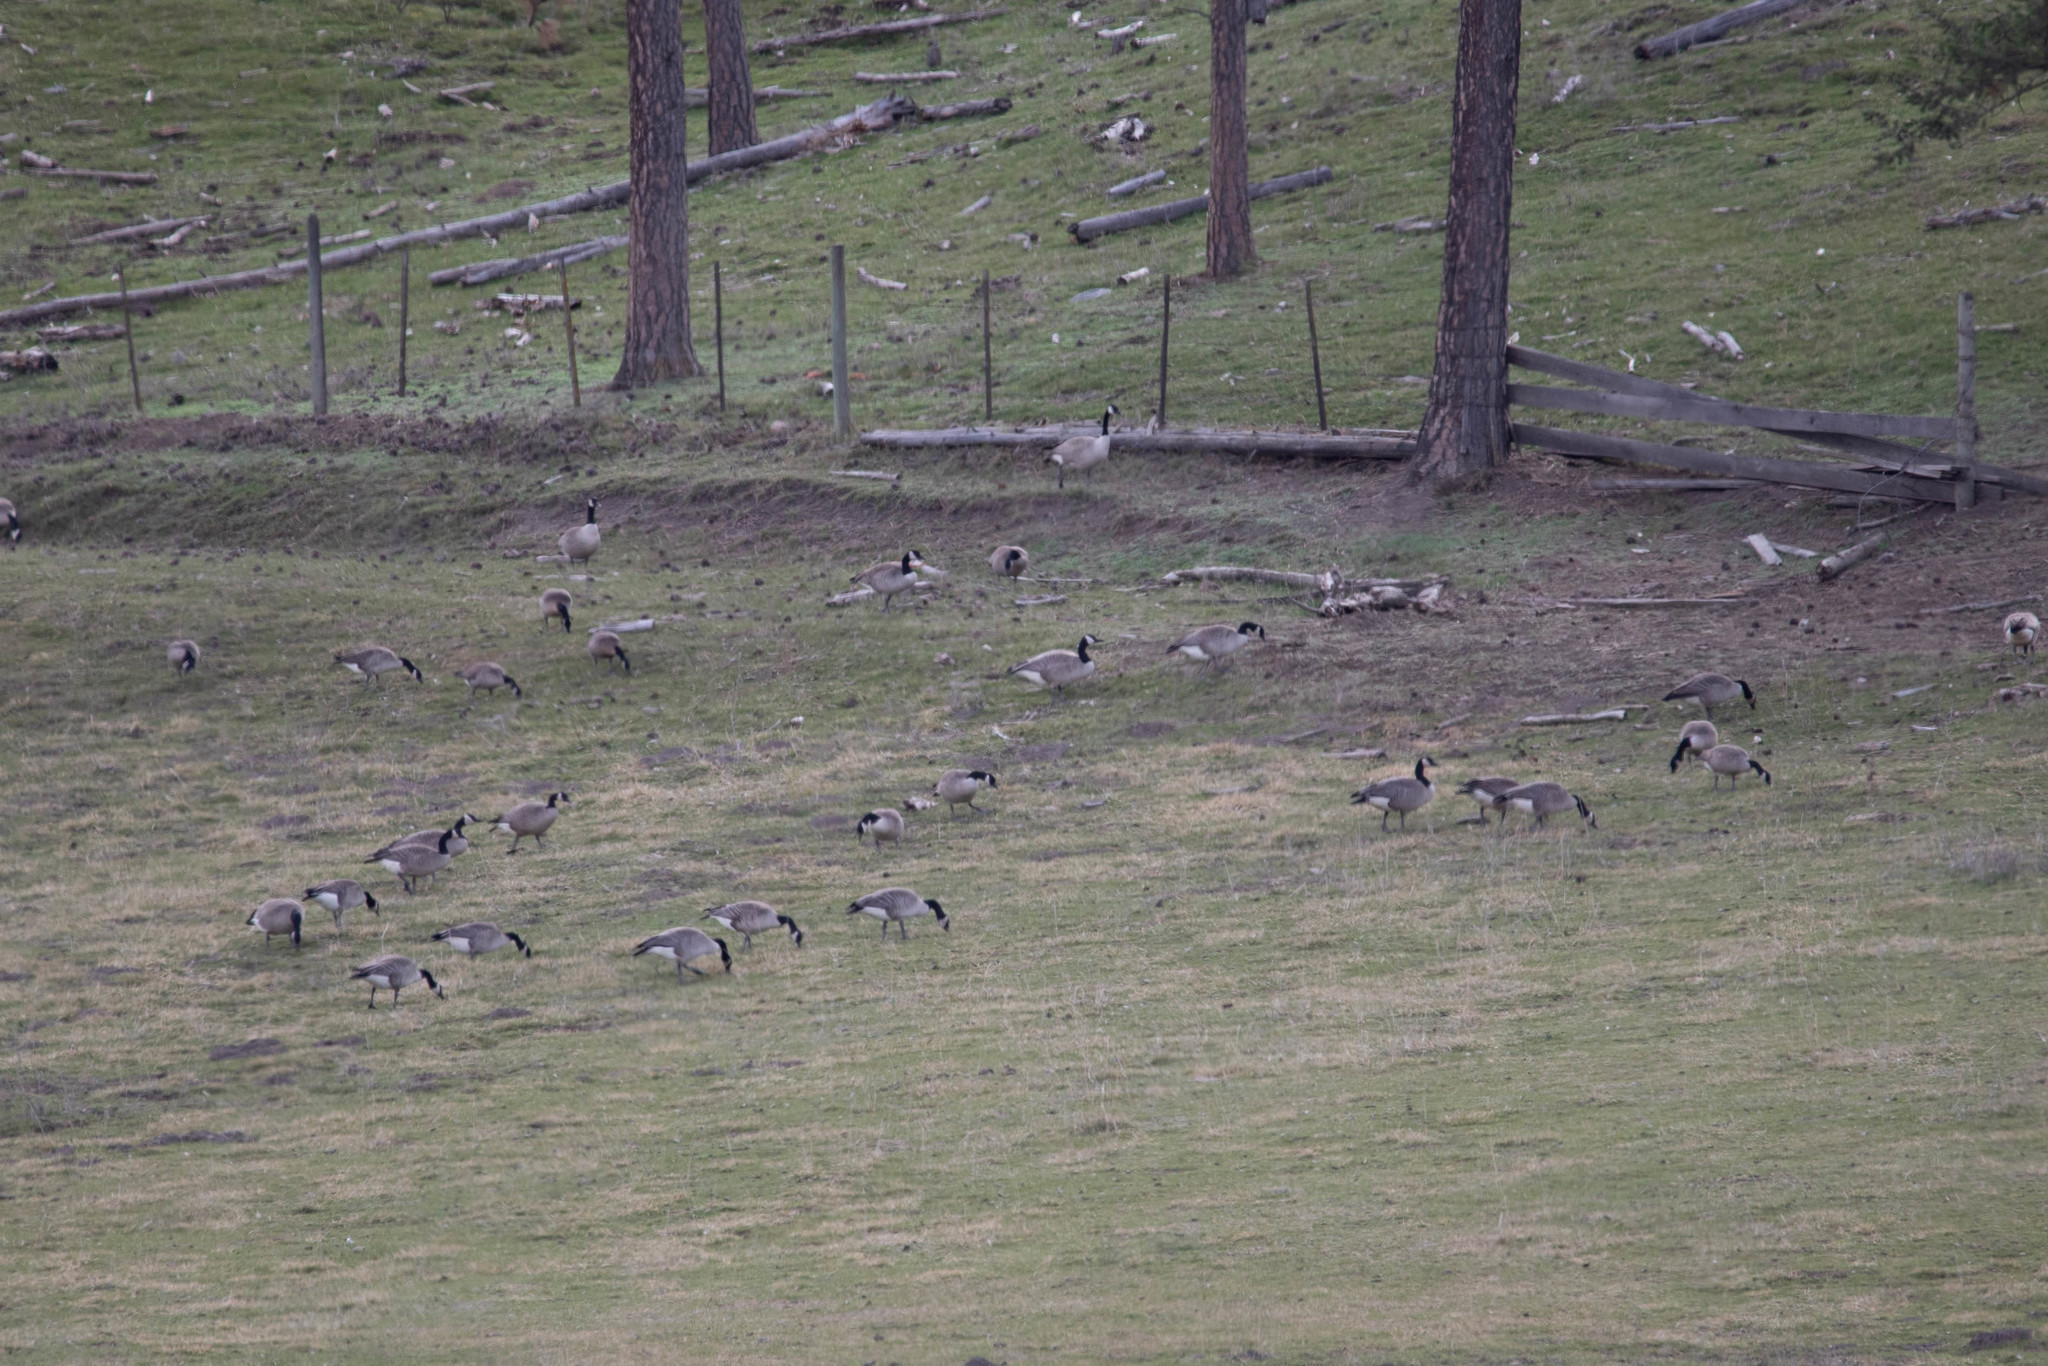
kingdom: Animalia
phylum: Chordata
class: Aves
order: Anseriformes
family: Anatidae
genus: Branta
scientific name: Branta canadensis
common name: Canada goose
